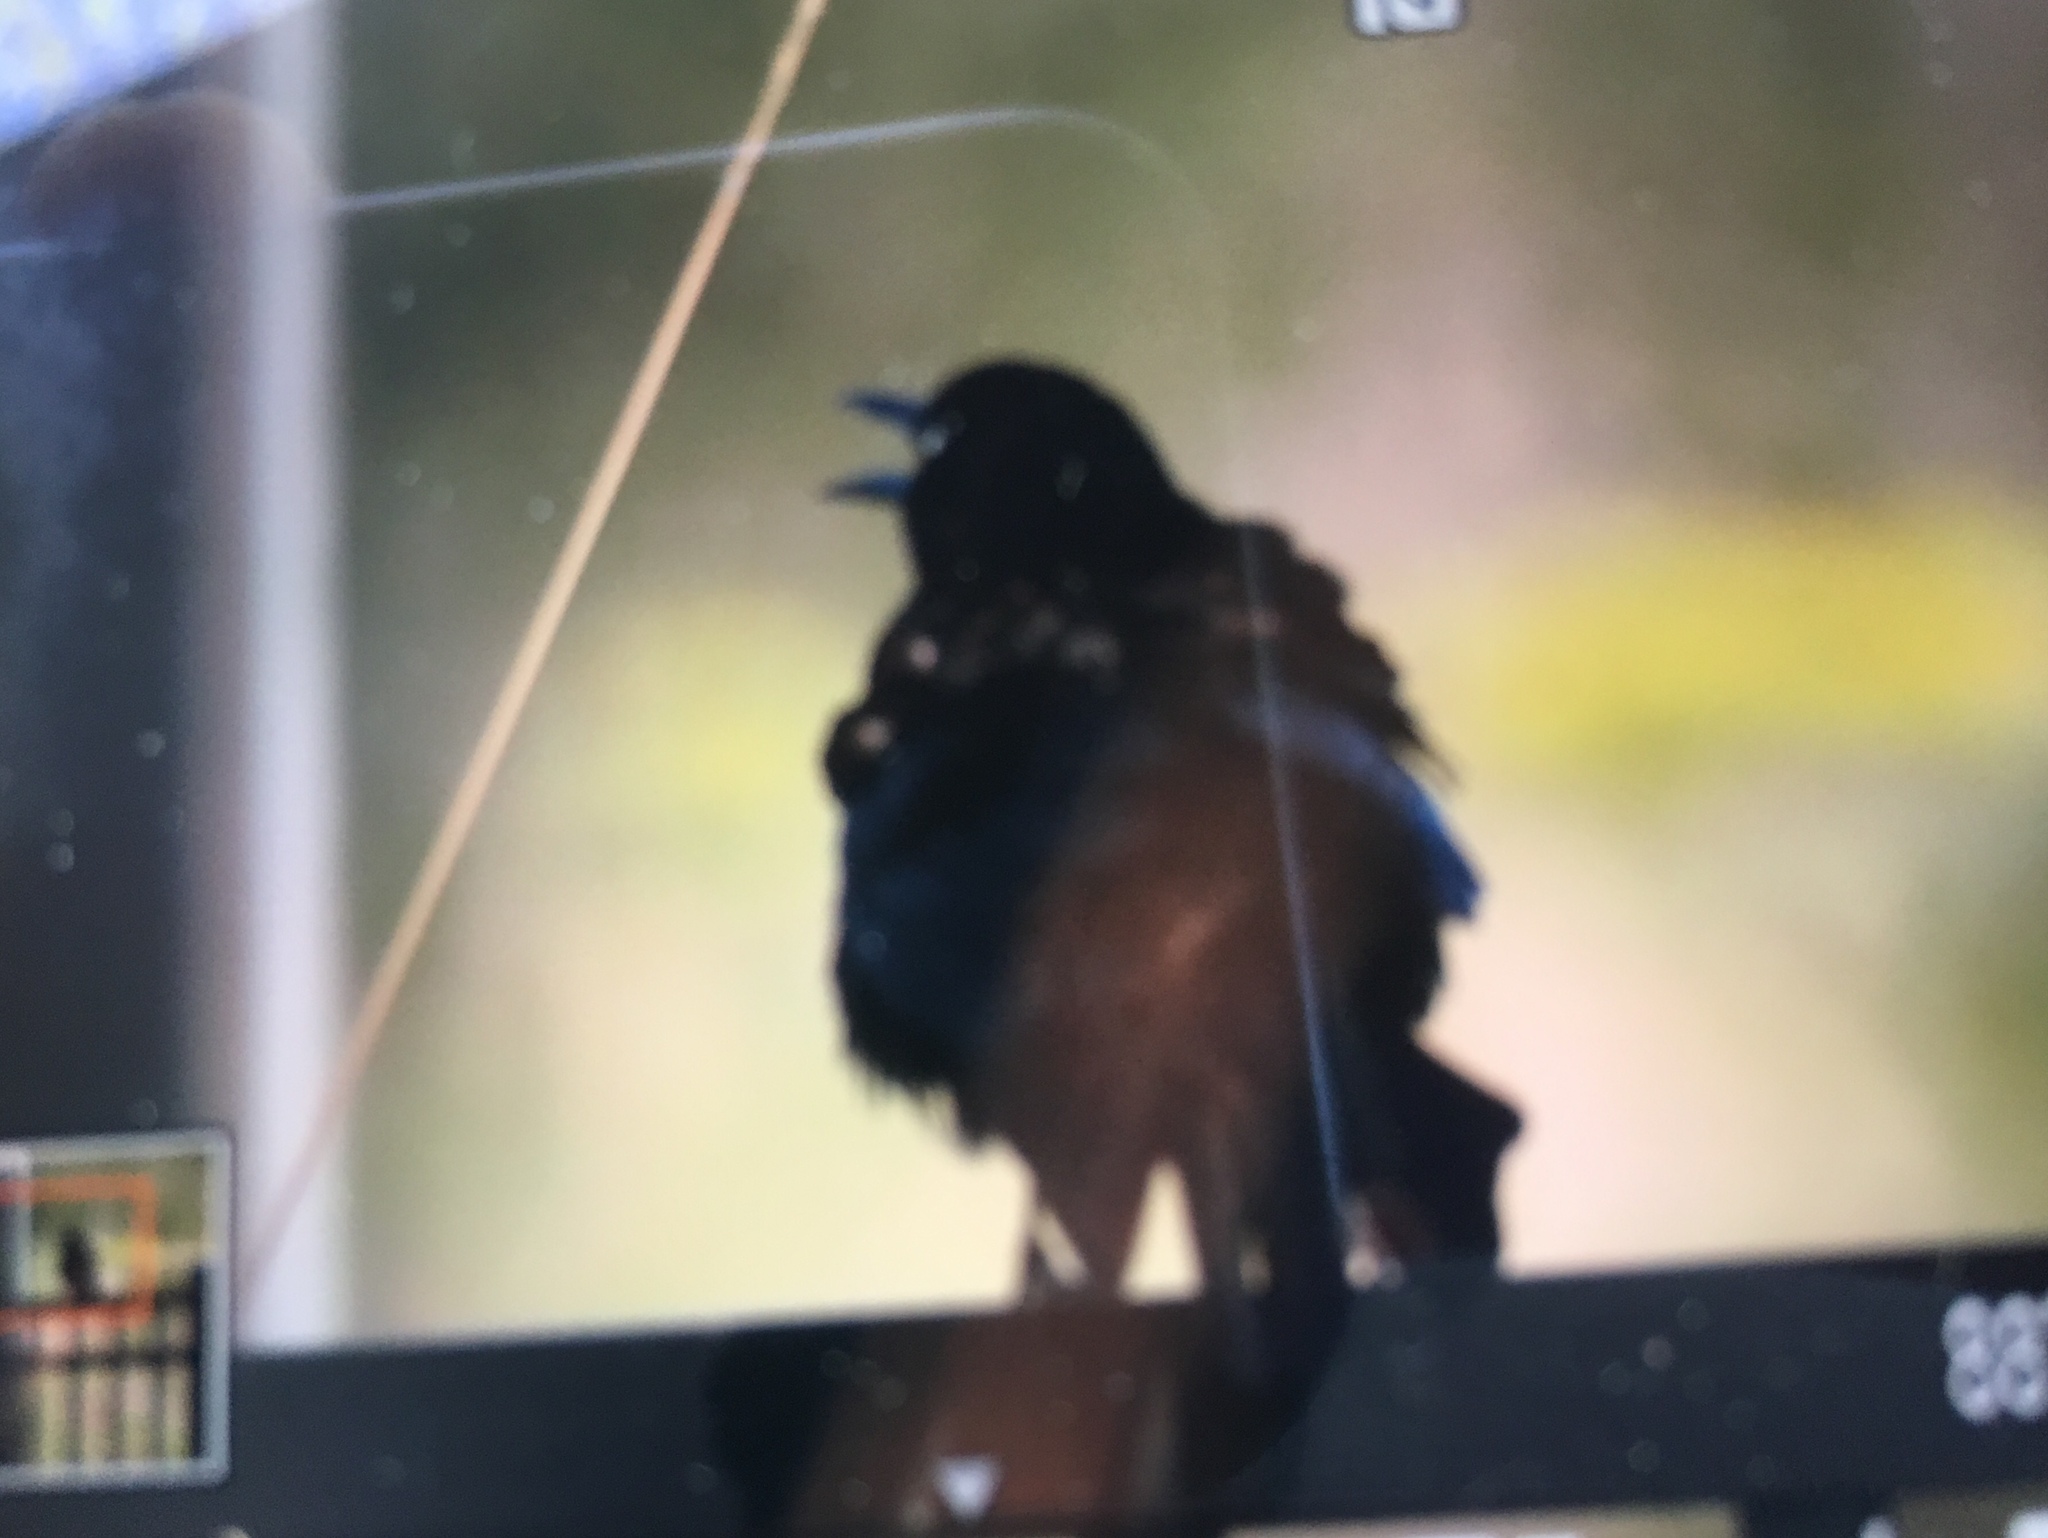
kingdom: Animalia
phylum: Chordata
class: Aves
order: Passeriformes
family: Icteridae
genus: Quiscalus
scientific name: Quiscalus quiscula
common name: Common grackle
